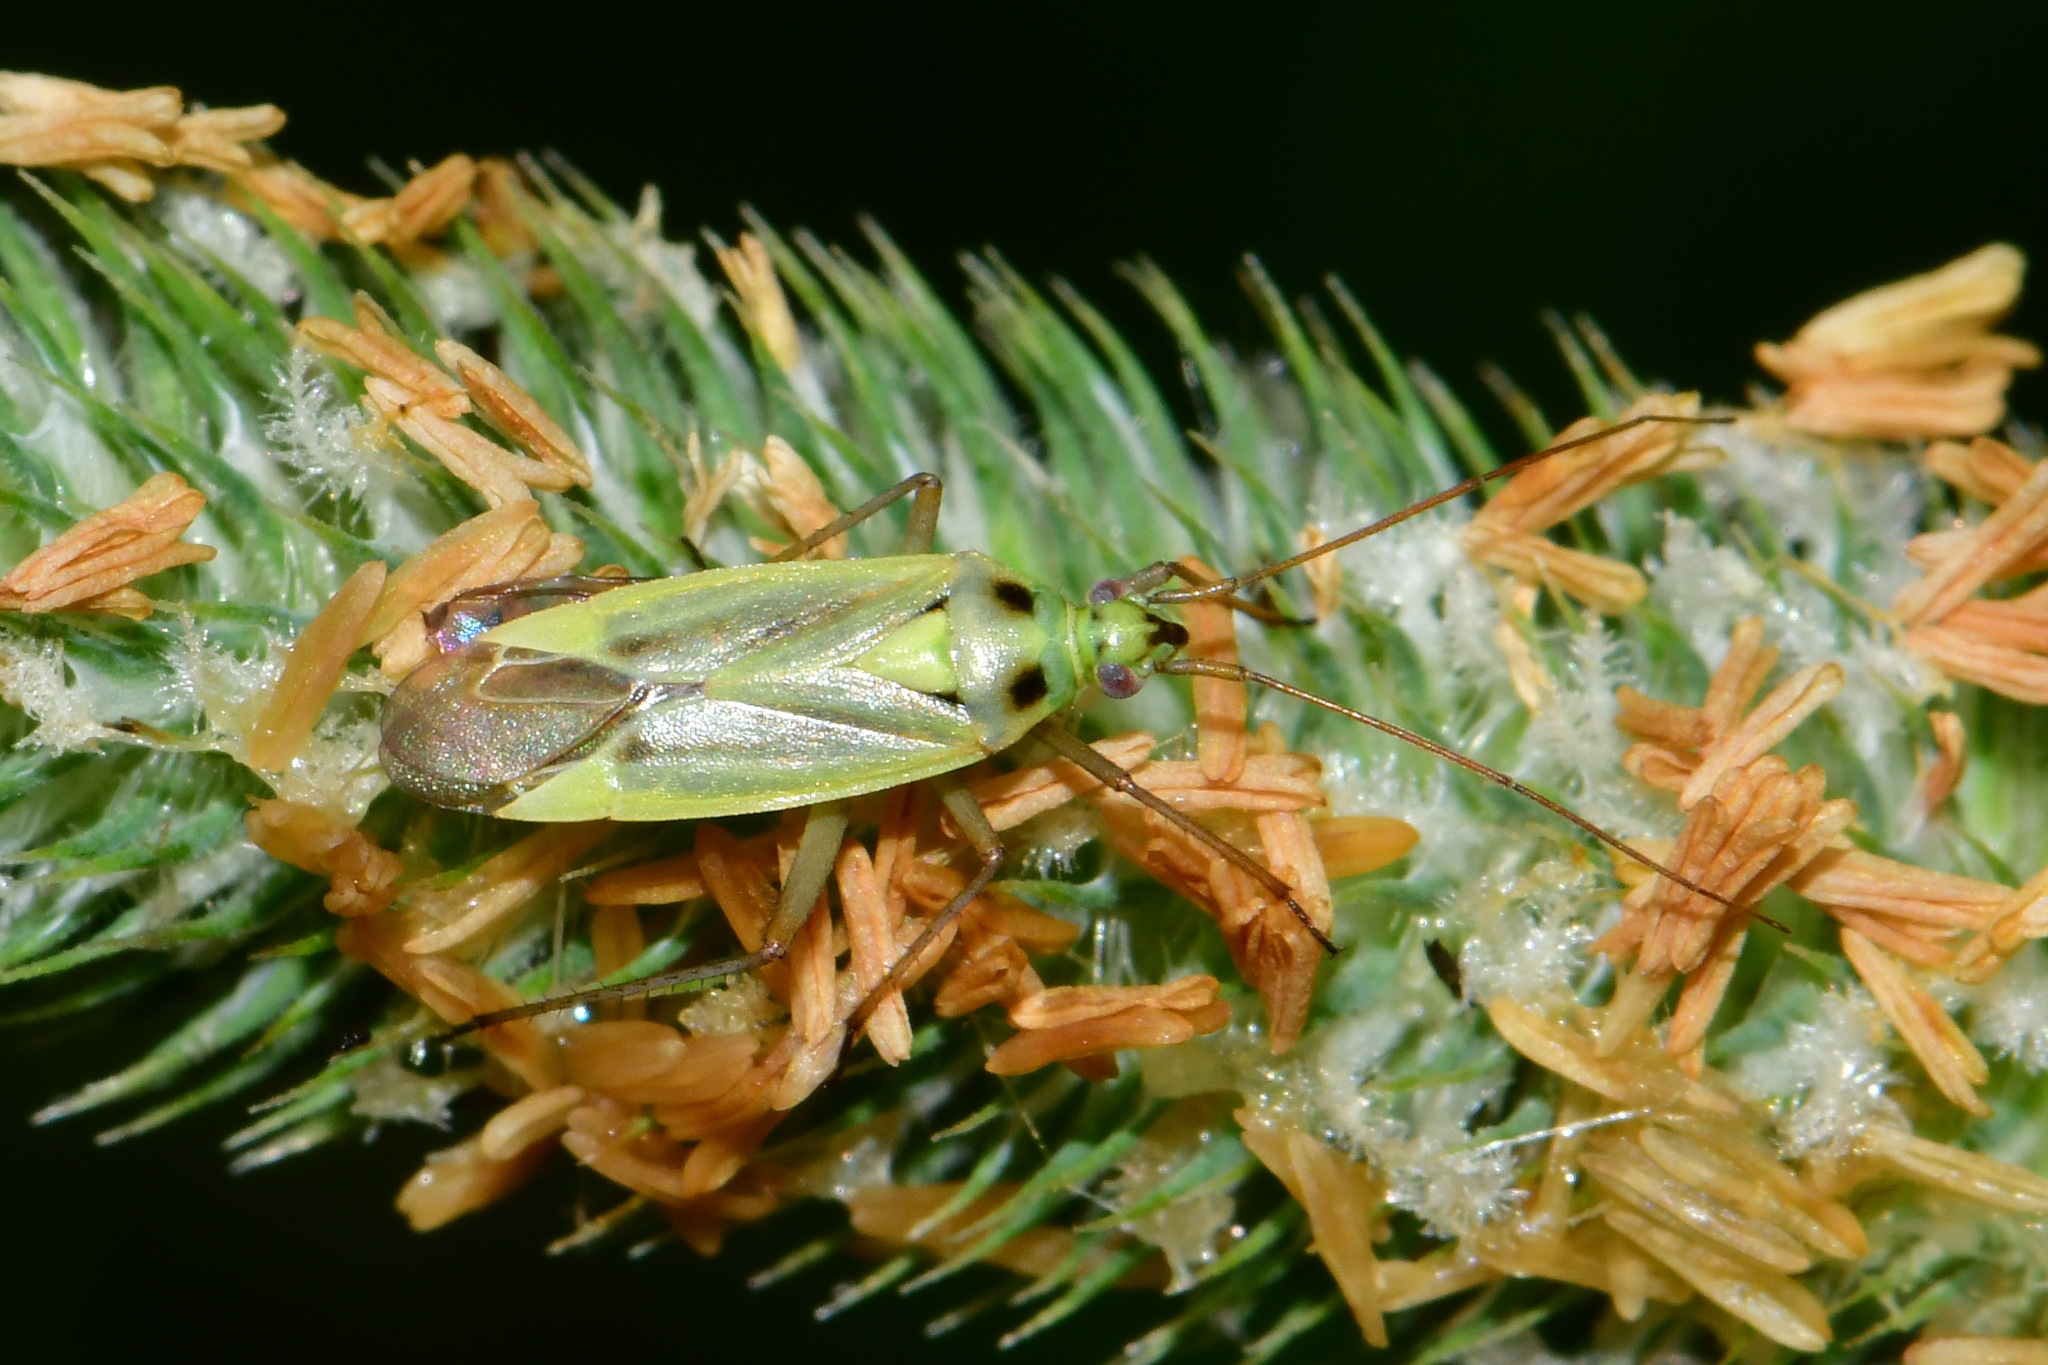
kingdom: Animalia
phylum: Arthropoda
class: Insecta
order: Hemiptera
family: Miridae
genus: Stenotus
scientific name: Stenotus binotatus
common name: Plant bug
